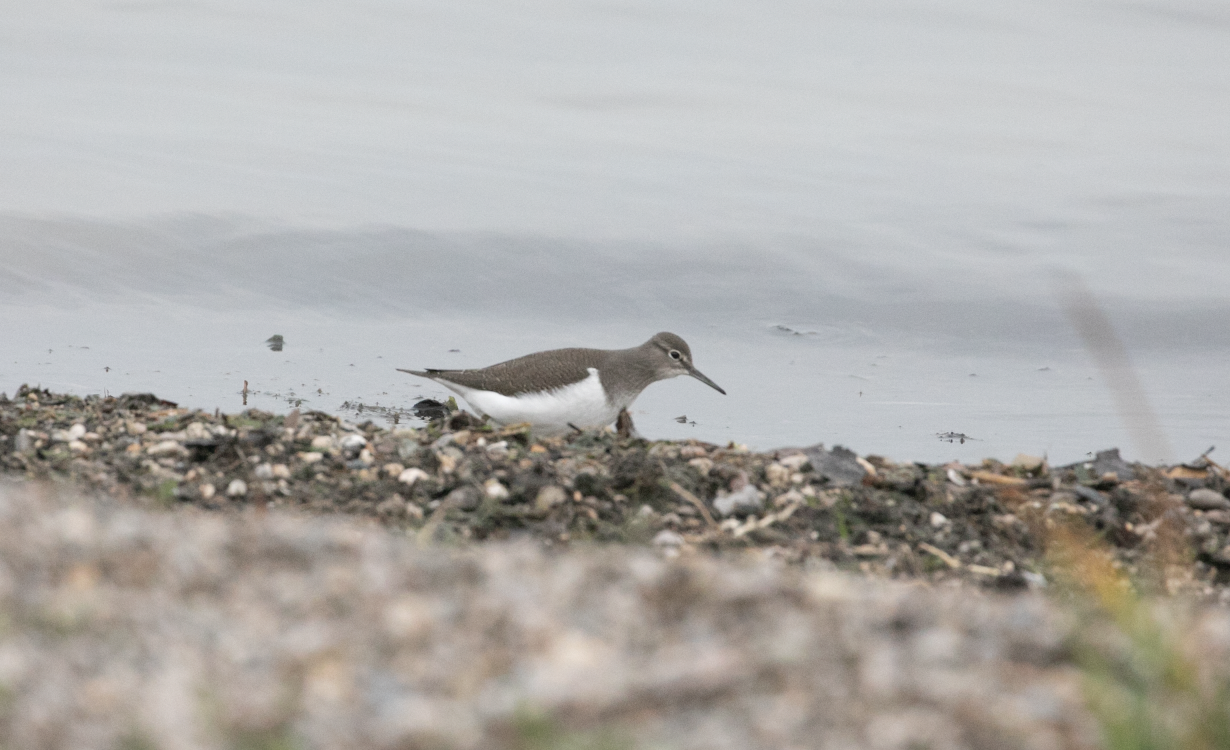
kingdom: Animalia
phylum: Chordata
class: Aves
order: Charadriiformes
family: Scolopacidae
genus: Actitis
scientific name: Actitis hypoleucos
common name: Common sandpiper
